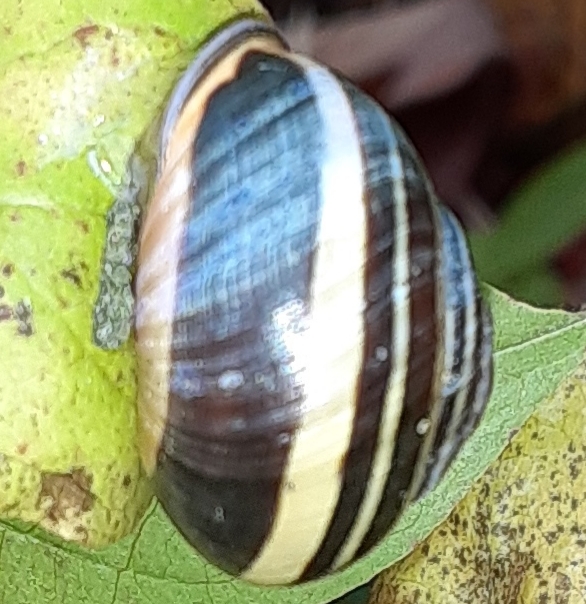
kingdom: Animalia
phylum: Mollusca
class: Gastropoda
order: Stylommatophora
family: Helicidae
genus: Cepaea
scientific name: Cepaea nemoralis
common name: Grovesnail
